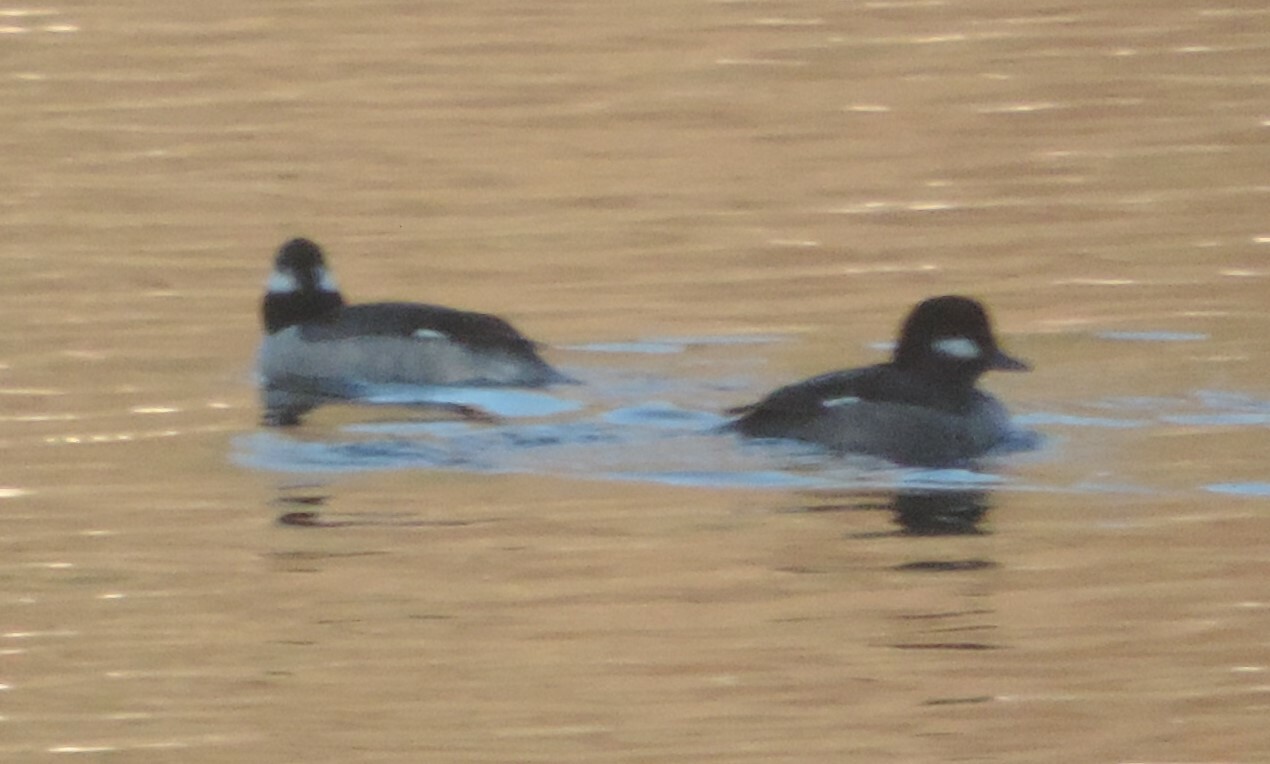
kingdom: Animalia
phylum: Chordata
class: Aves
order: Anseriformes
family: Anatidae
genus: Bucephala
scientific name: Bucephala albeola
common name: Bufflehead
